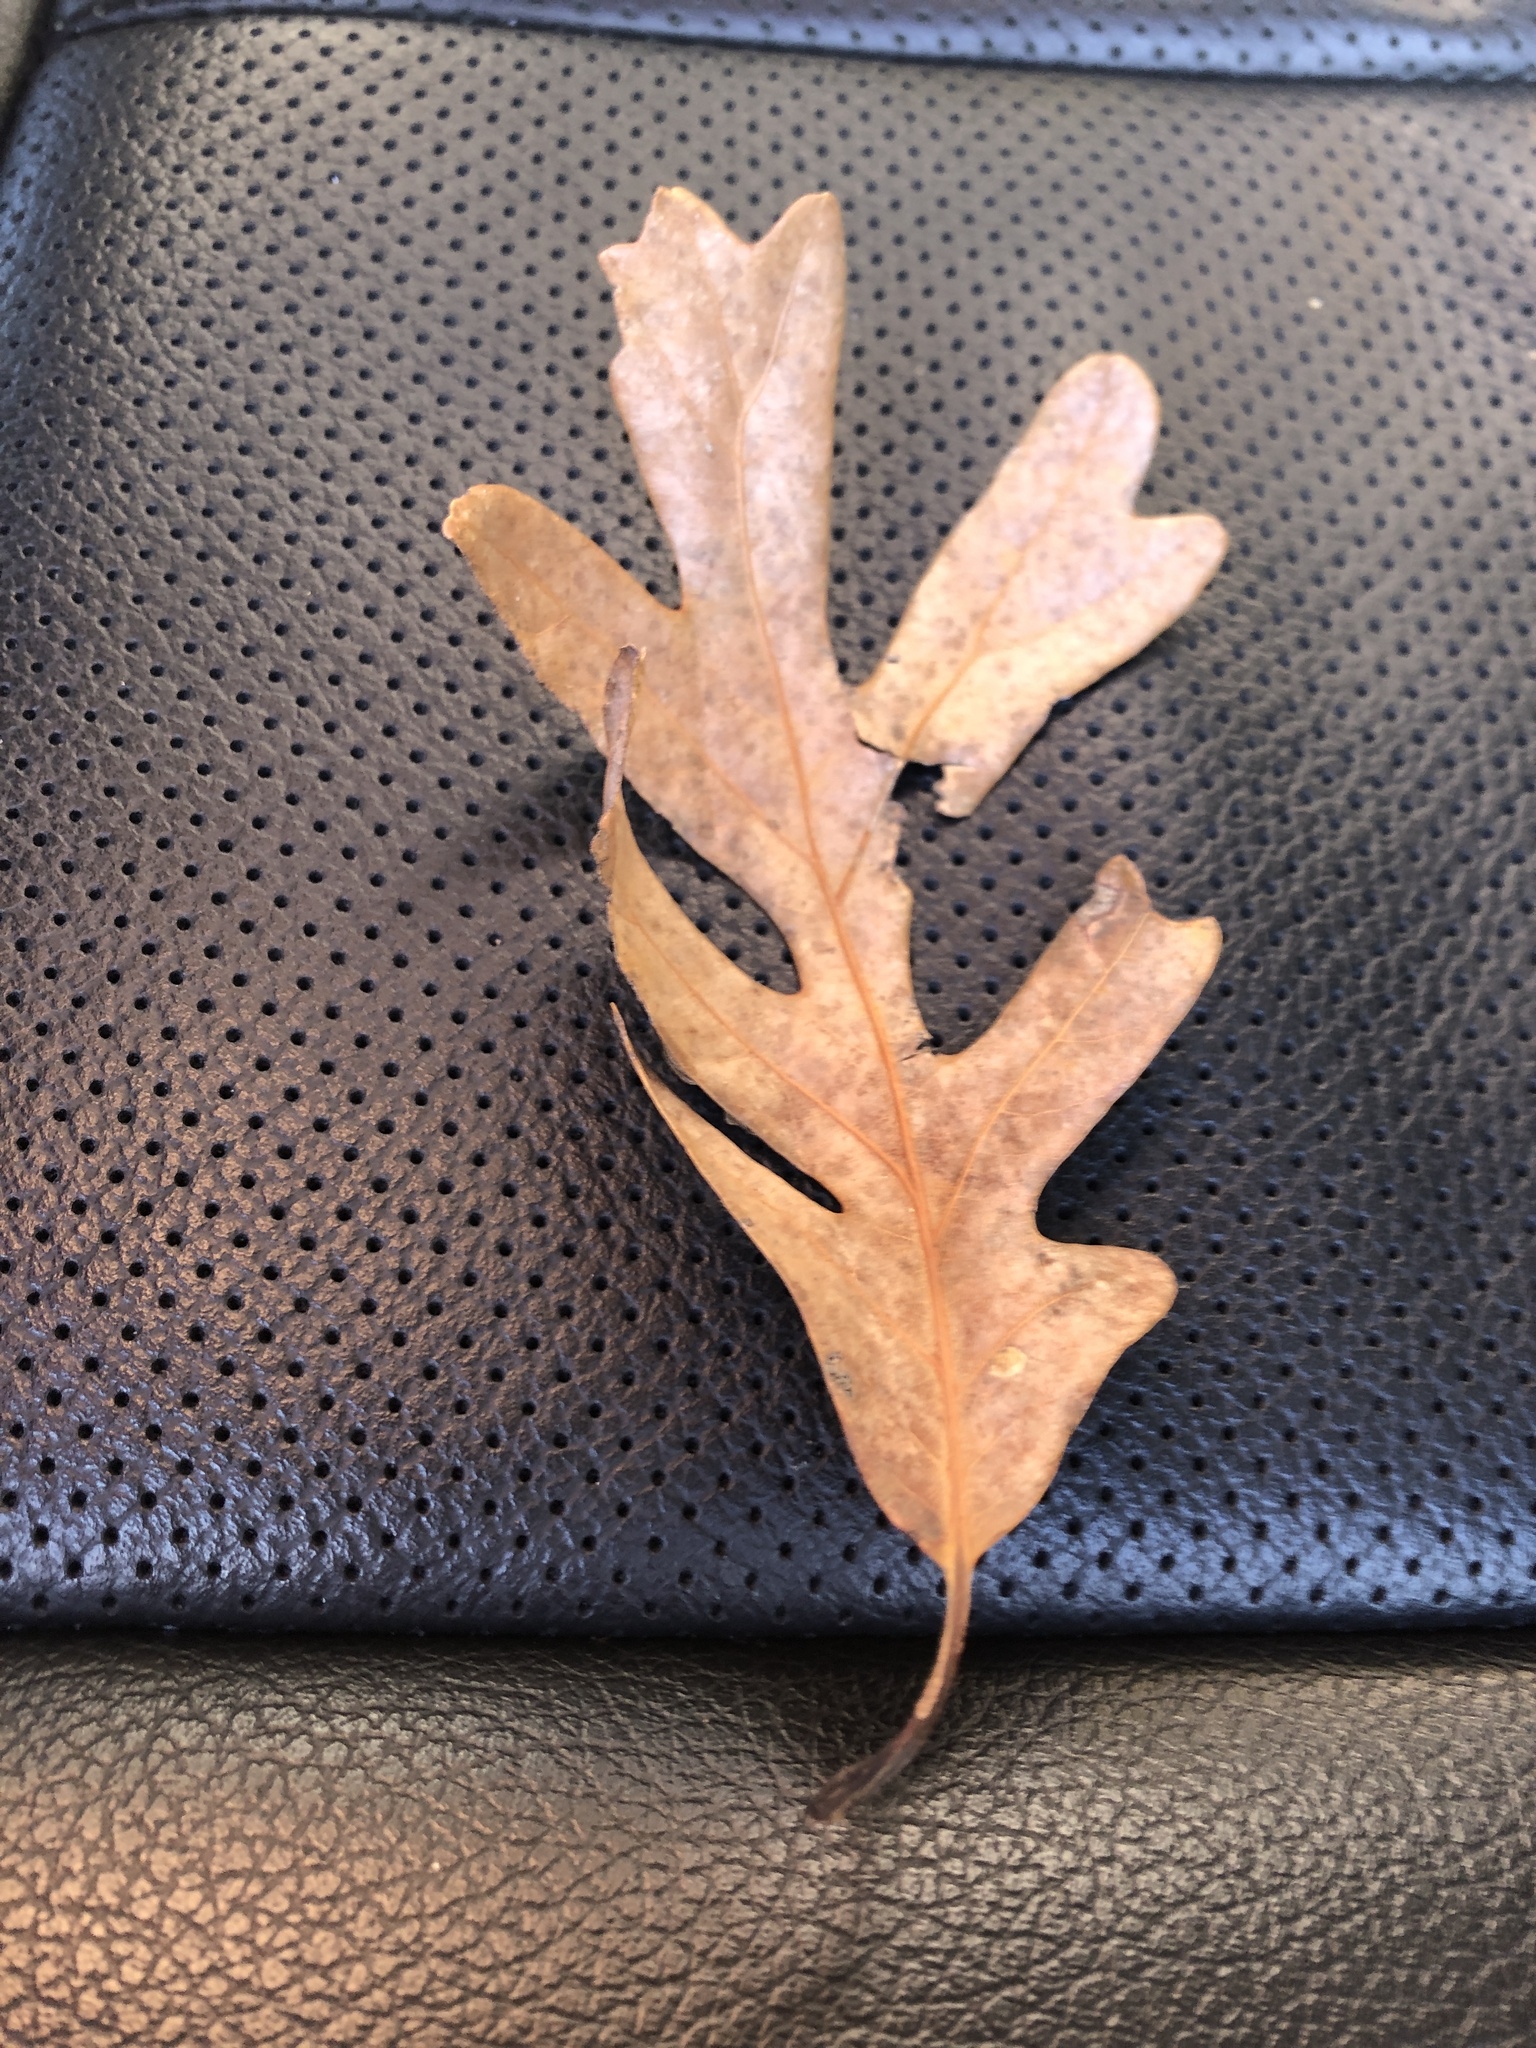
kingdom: Plantae
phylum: Tracheophyta
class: Magnoliopsida
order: Fagales
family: Fagaceae
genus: Quercus
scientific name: Quercus alba
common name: White oak
